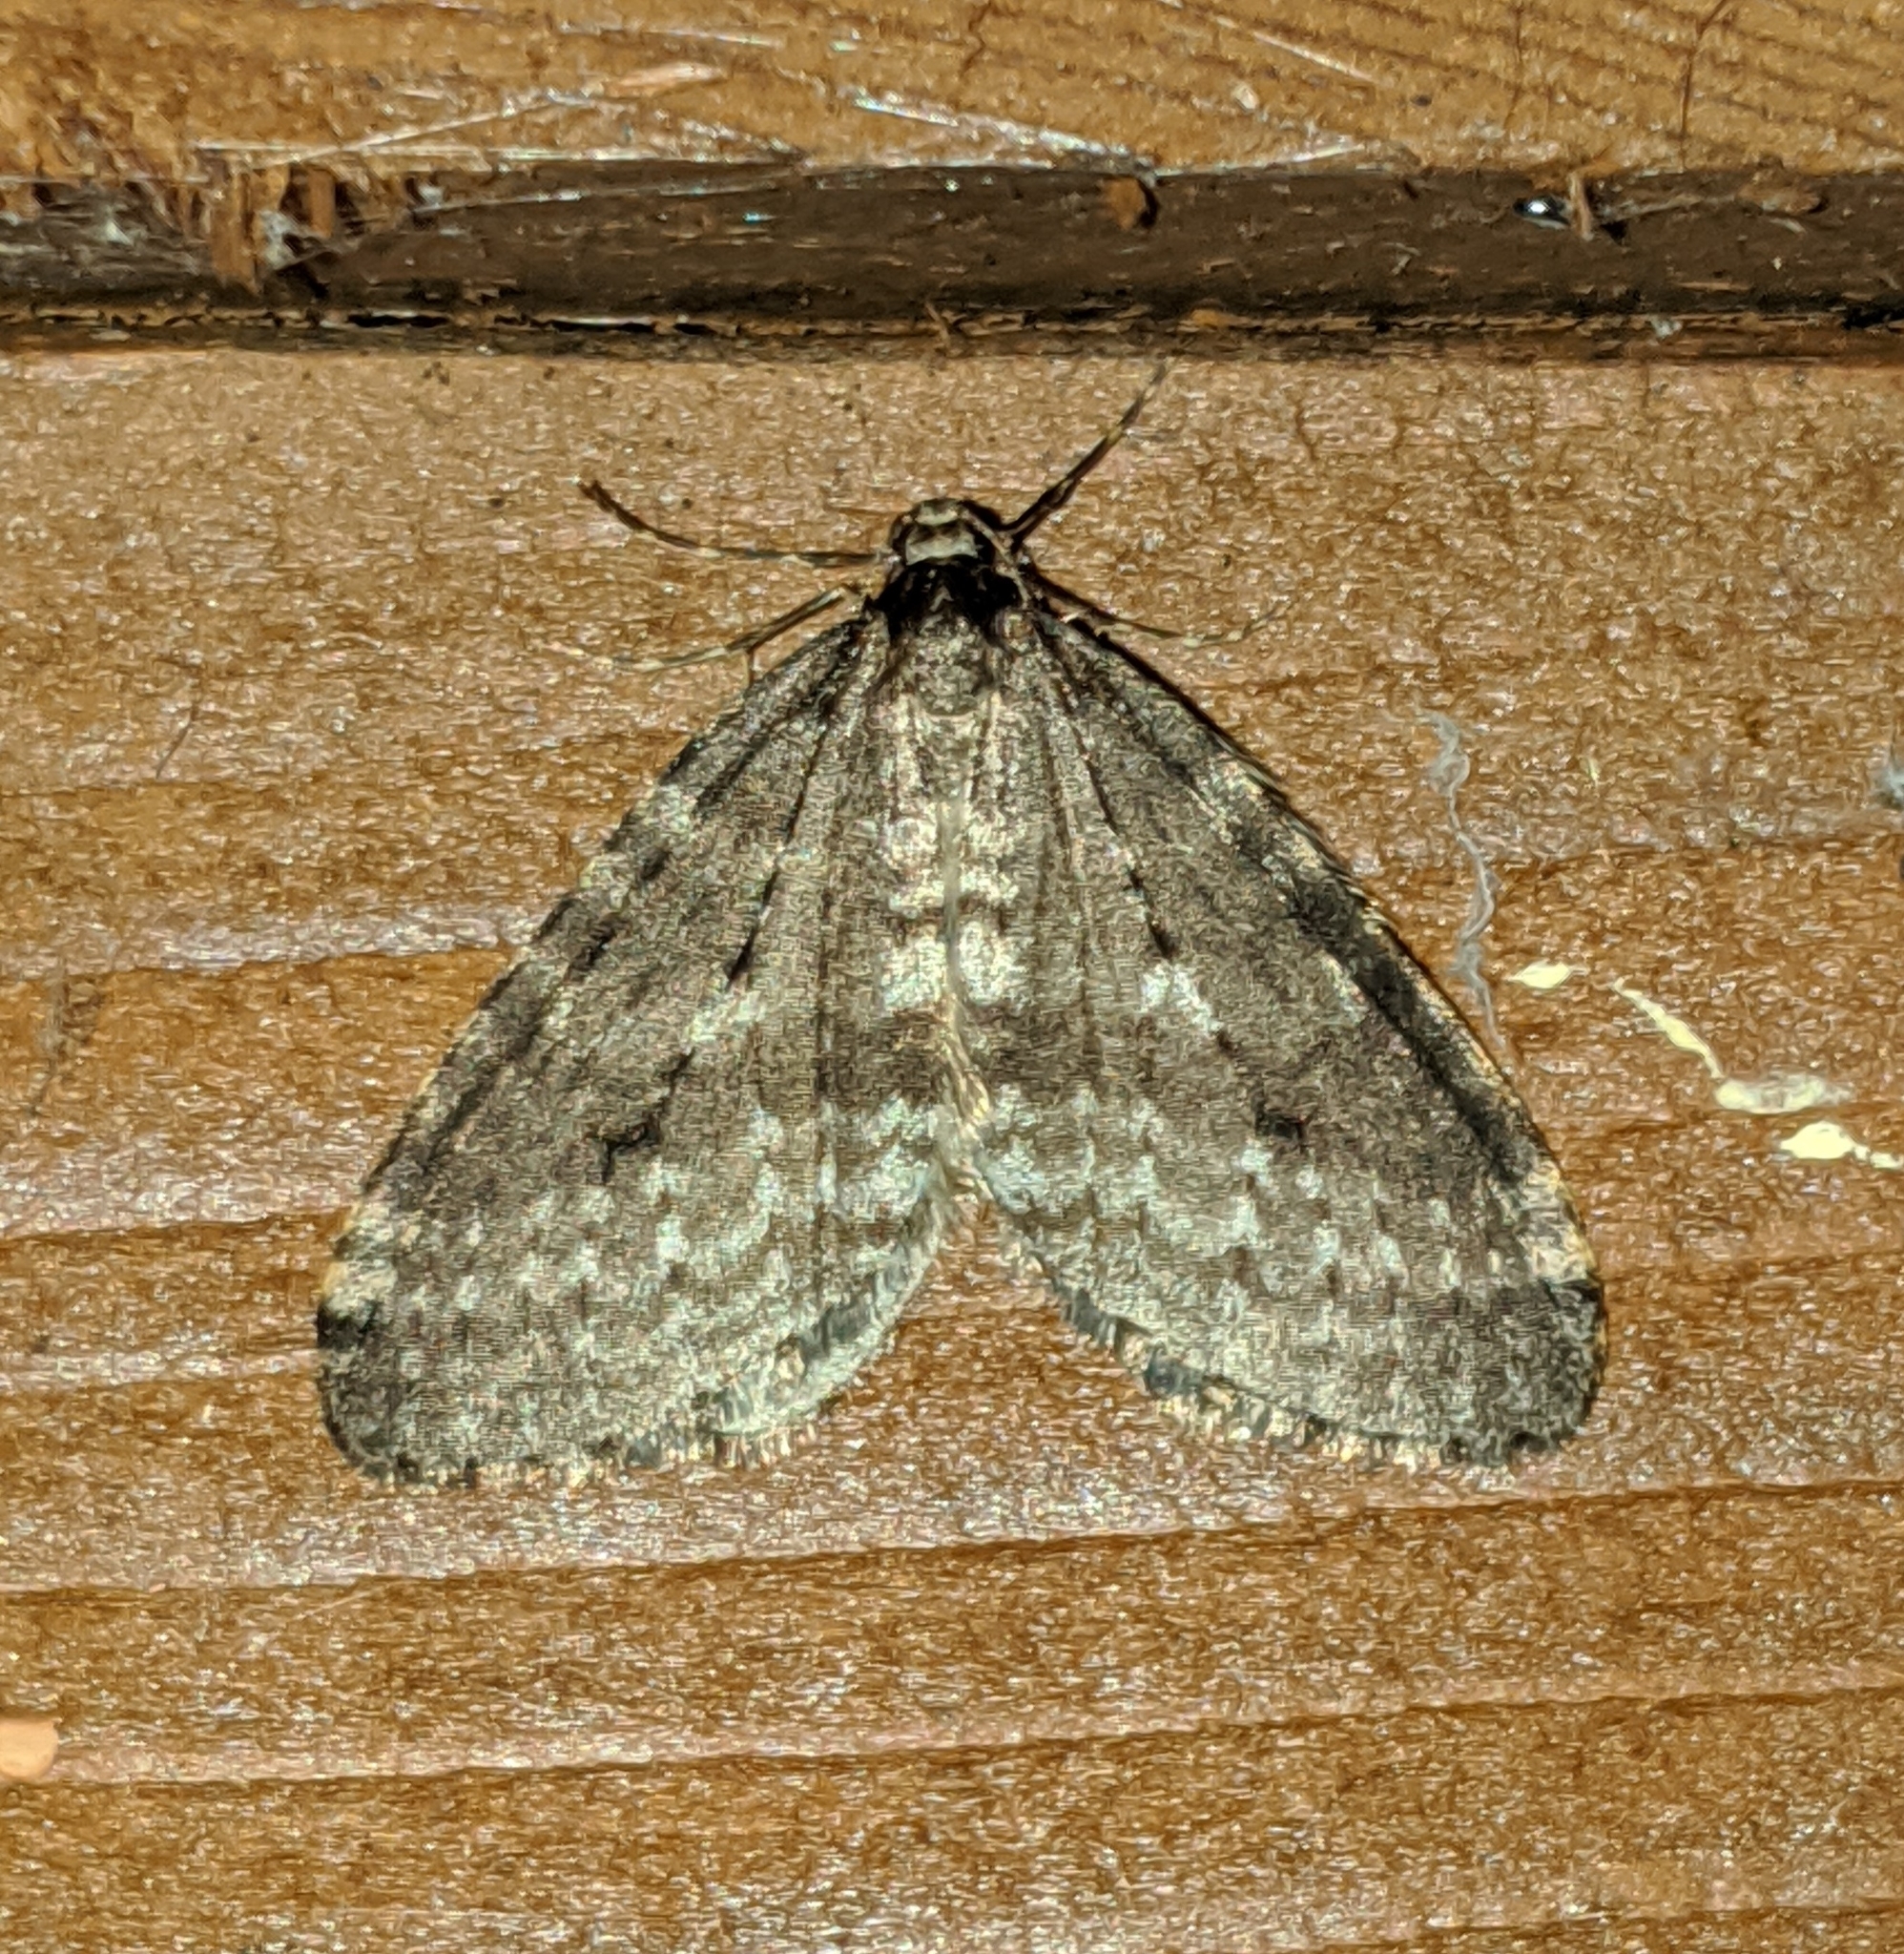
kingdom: Animalia
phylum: Arthropoda
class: Insecta
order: Lepidoptera
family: Geometridae
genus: Operophtera
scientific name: Operophtera occidentalis
